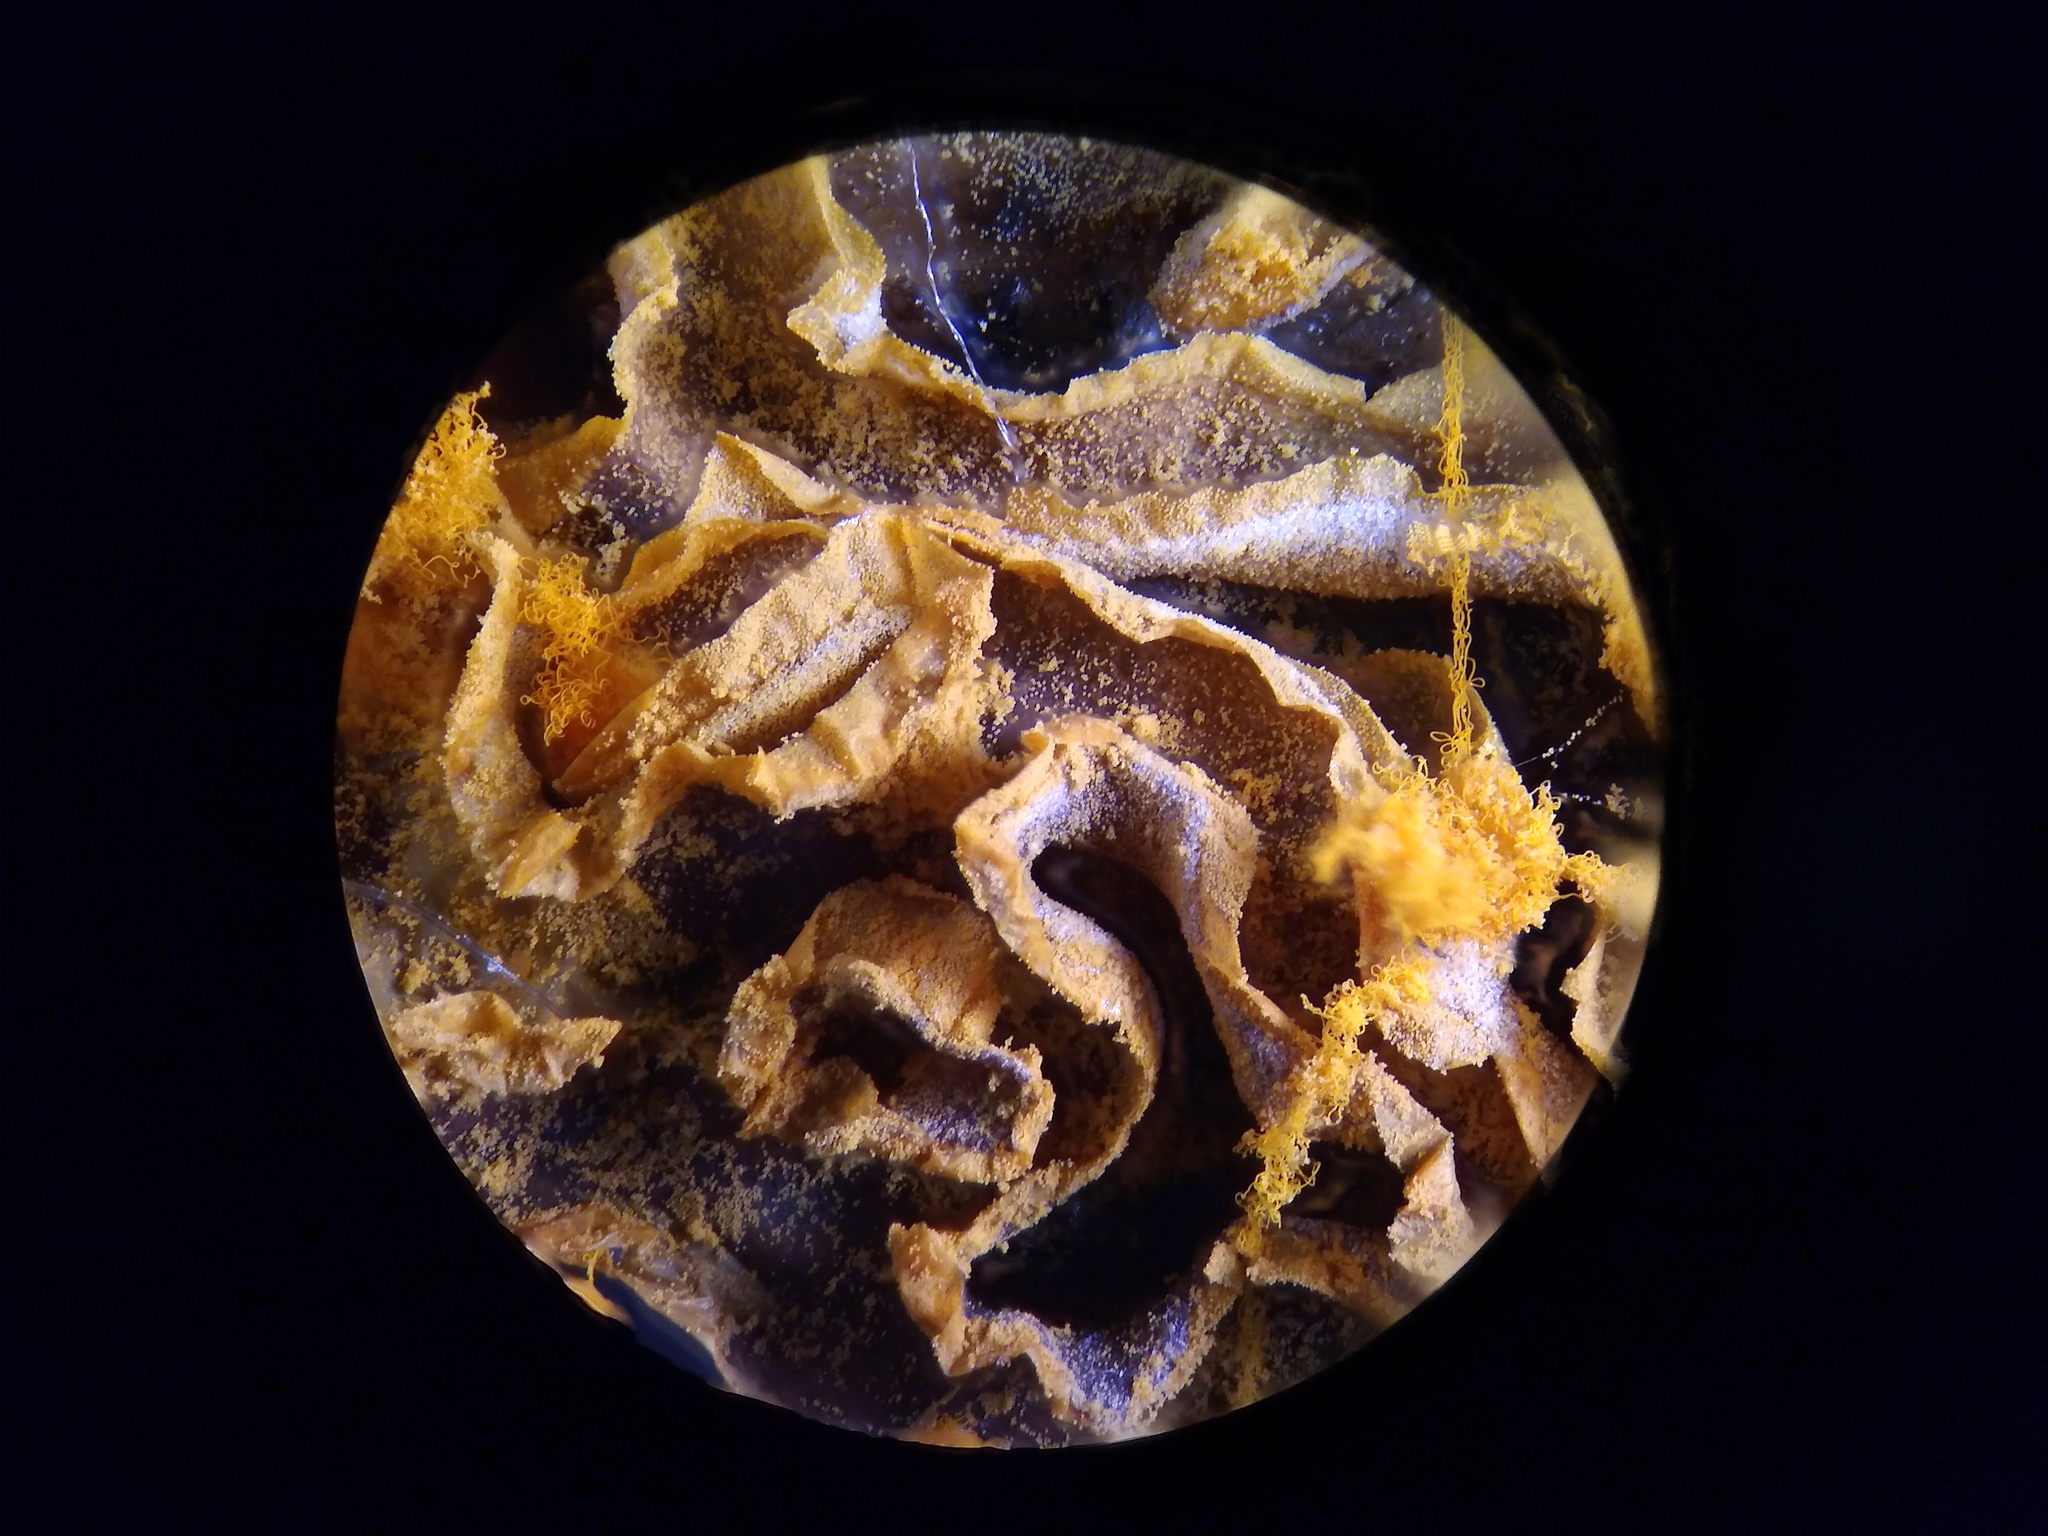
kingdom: Protozoa
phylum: Mycetozoa
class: Myxomycetes
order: Trichiales
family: Arcyriaceae
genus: Hemitrichia
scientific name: Hemitrichia serpula
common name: Pretzel slime mold
